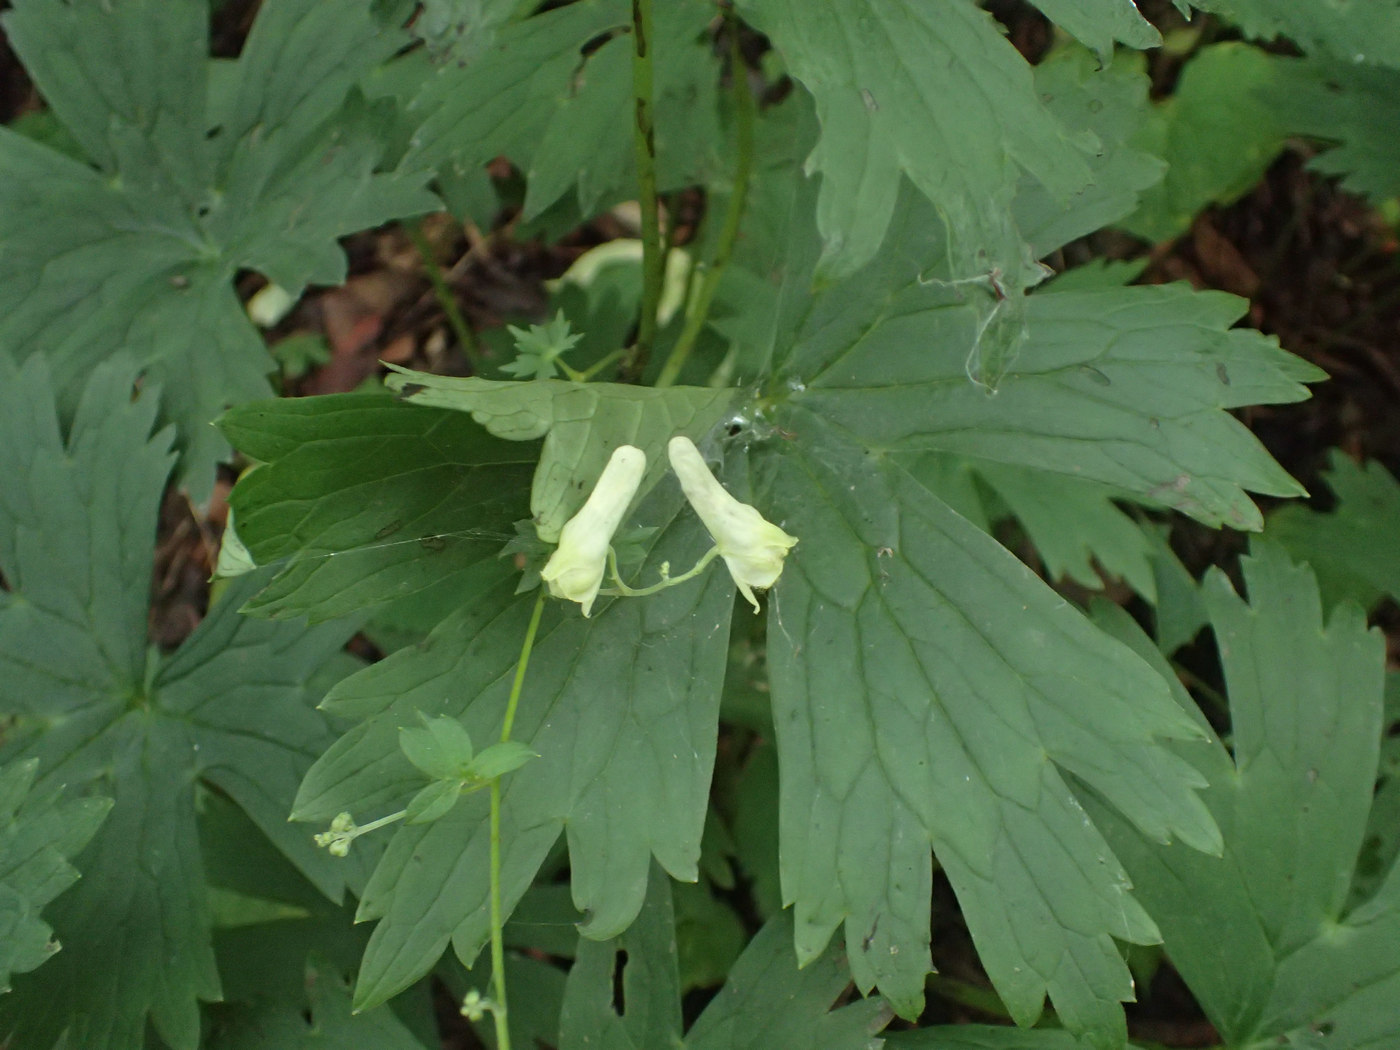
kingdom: Plantae
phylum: Tracheophyta
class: Magnoliopsida
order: Ranunculales
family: Ranunculaceae
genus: Aconitum
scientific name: Aconitum reclinatum
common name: Trailing wolfsbane
